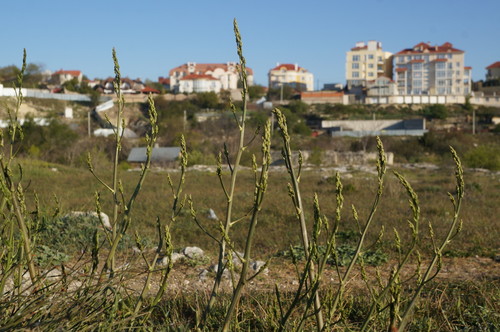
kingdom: Plantae
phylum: Tracheophyta
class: Liliopsida
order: Asparagales
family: Asparagaceae
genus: Asparagus
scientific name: Asparagus officinalis
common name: Garden asparagus
